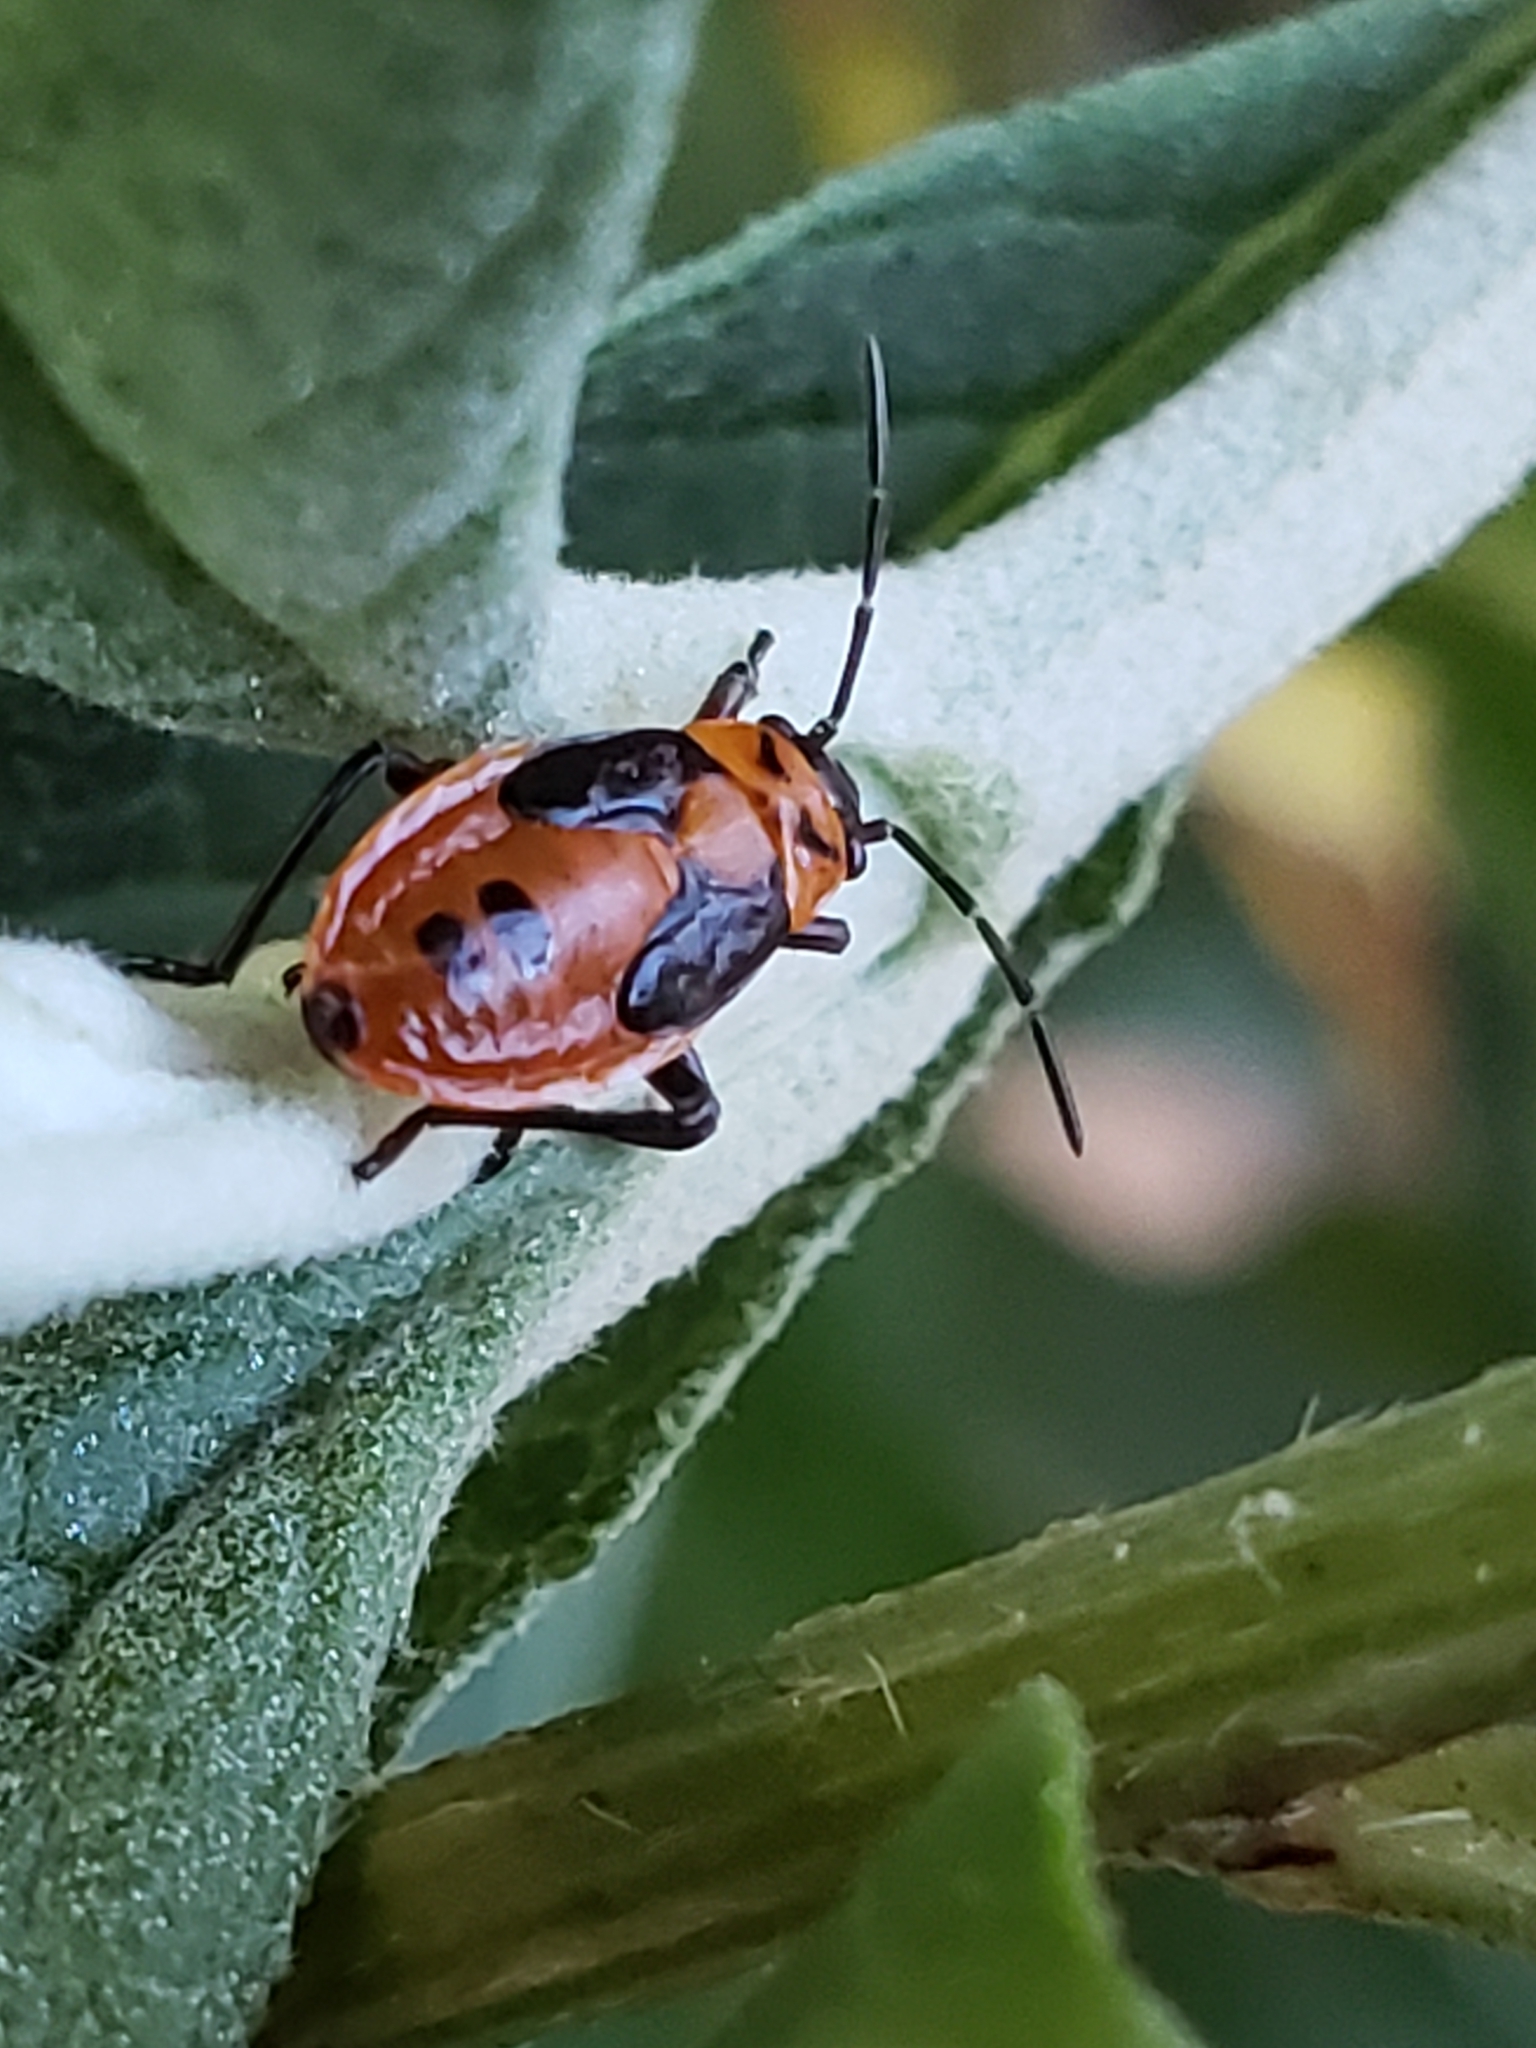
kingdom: Animalia
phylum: Arthropoda
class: Insecta
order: Hemiptera
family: Lygaeidae
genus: Lygaeus
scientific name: Lygaeus turcicus
